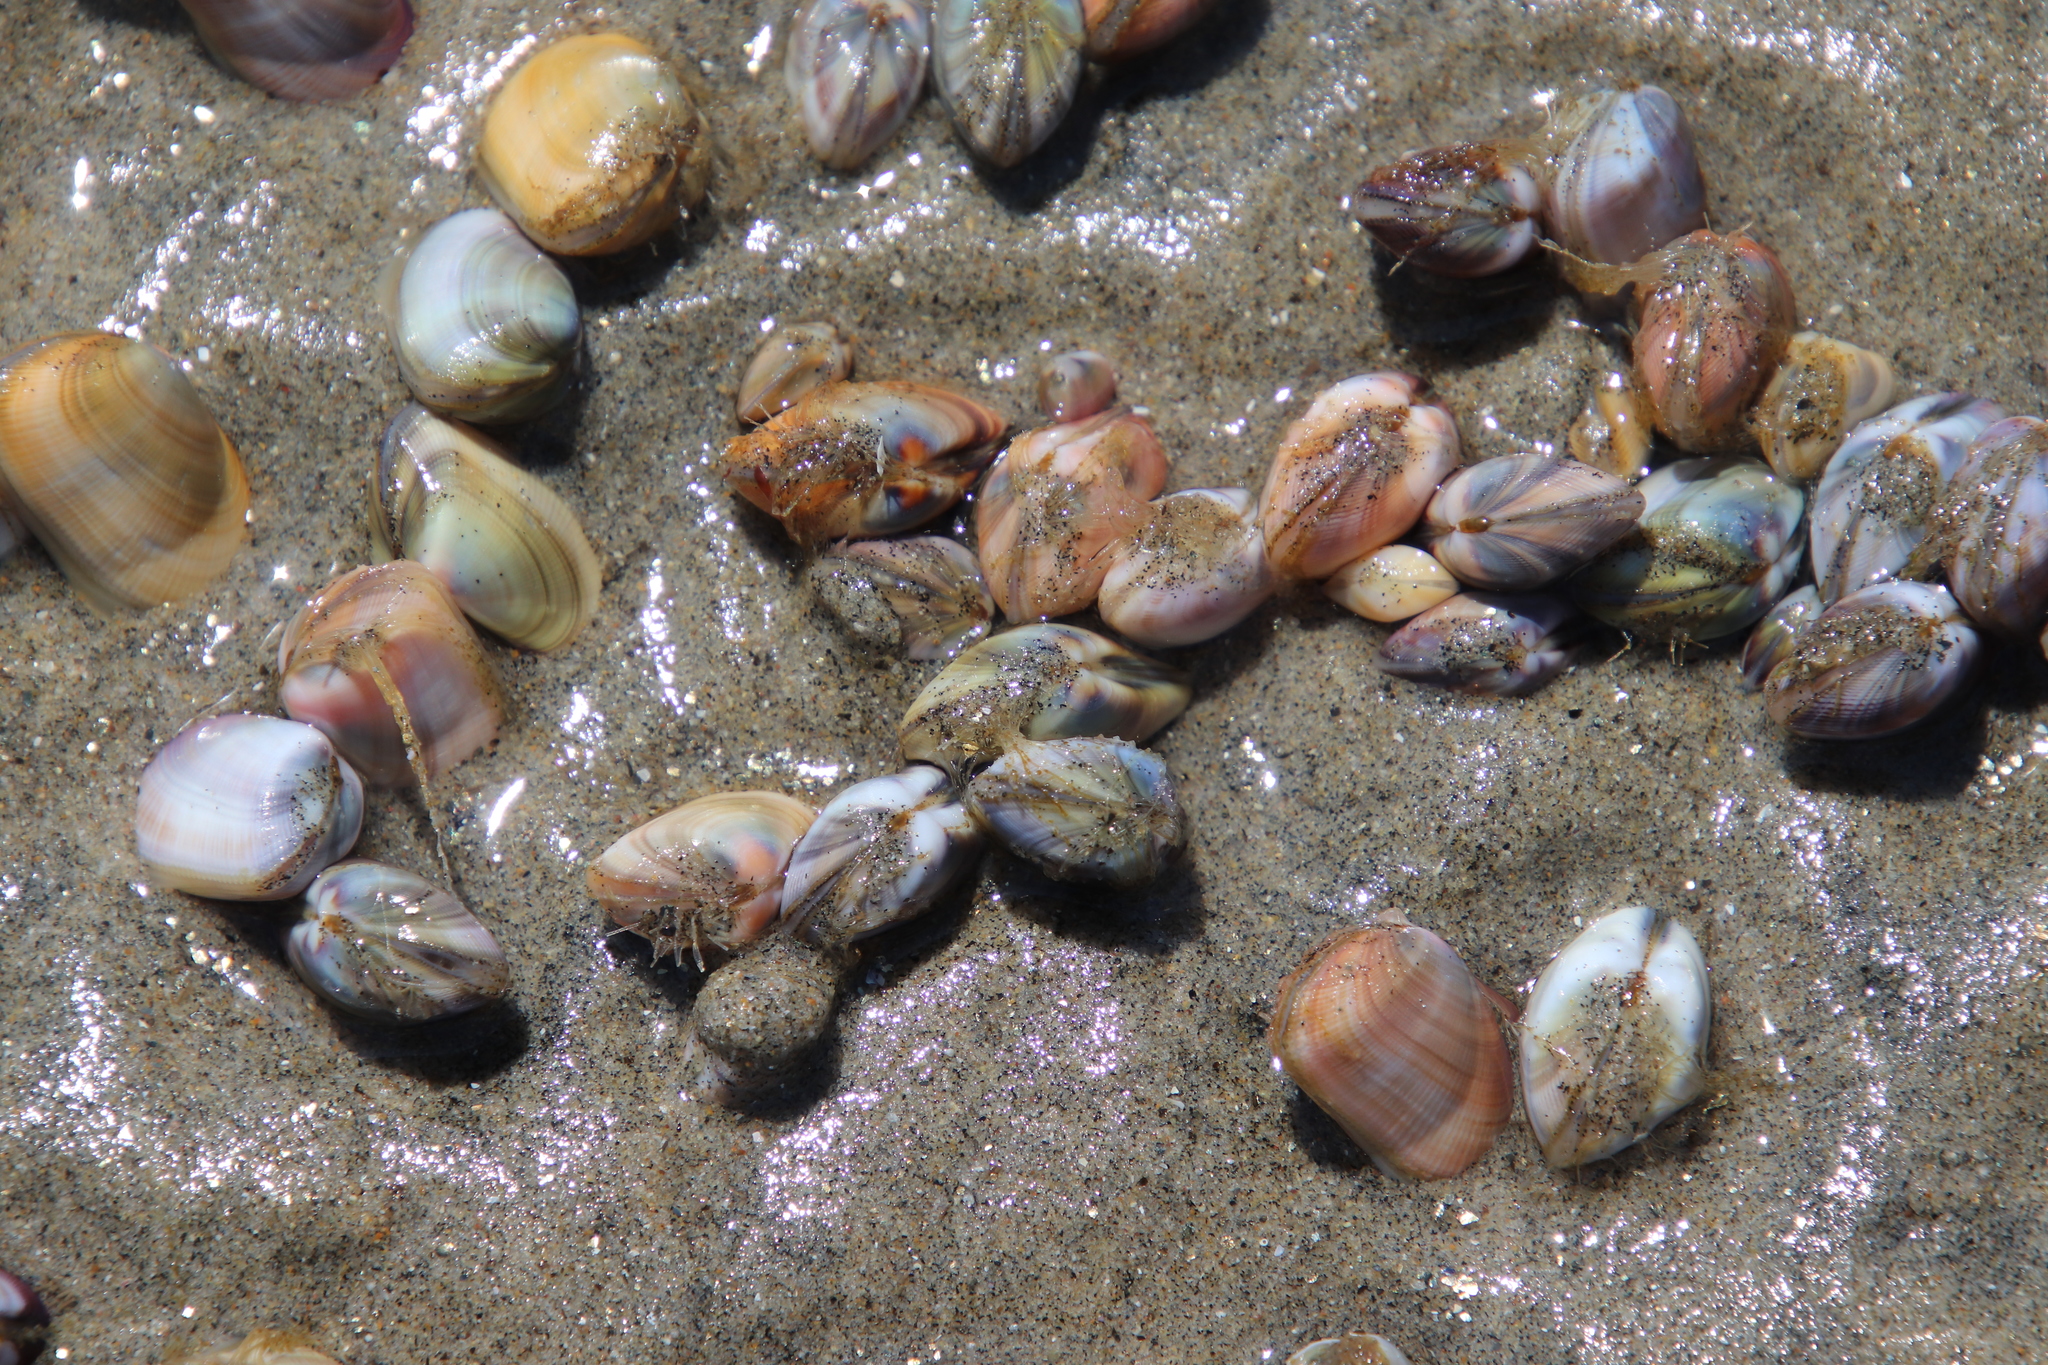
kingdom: Animalia
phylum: Mollusca
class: Bivalvia
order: Cardiida
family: Donacidae
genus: Donax
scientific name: Donax gouldii
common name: Gould beanclam
